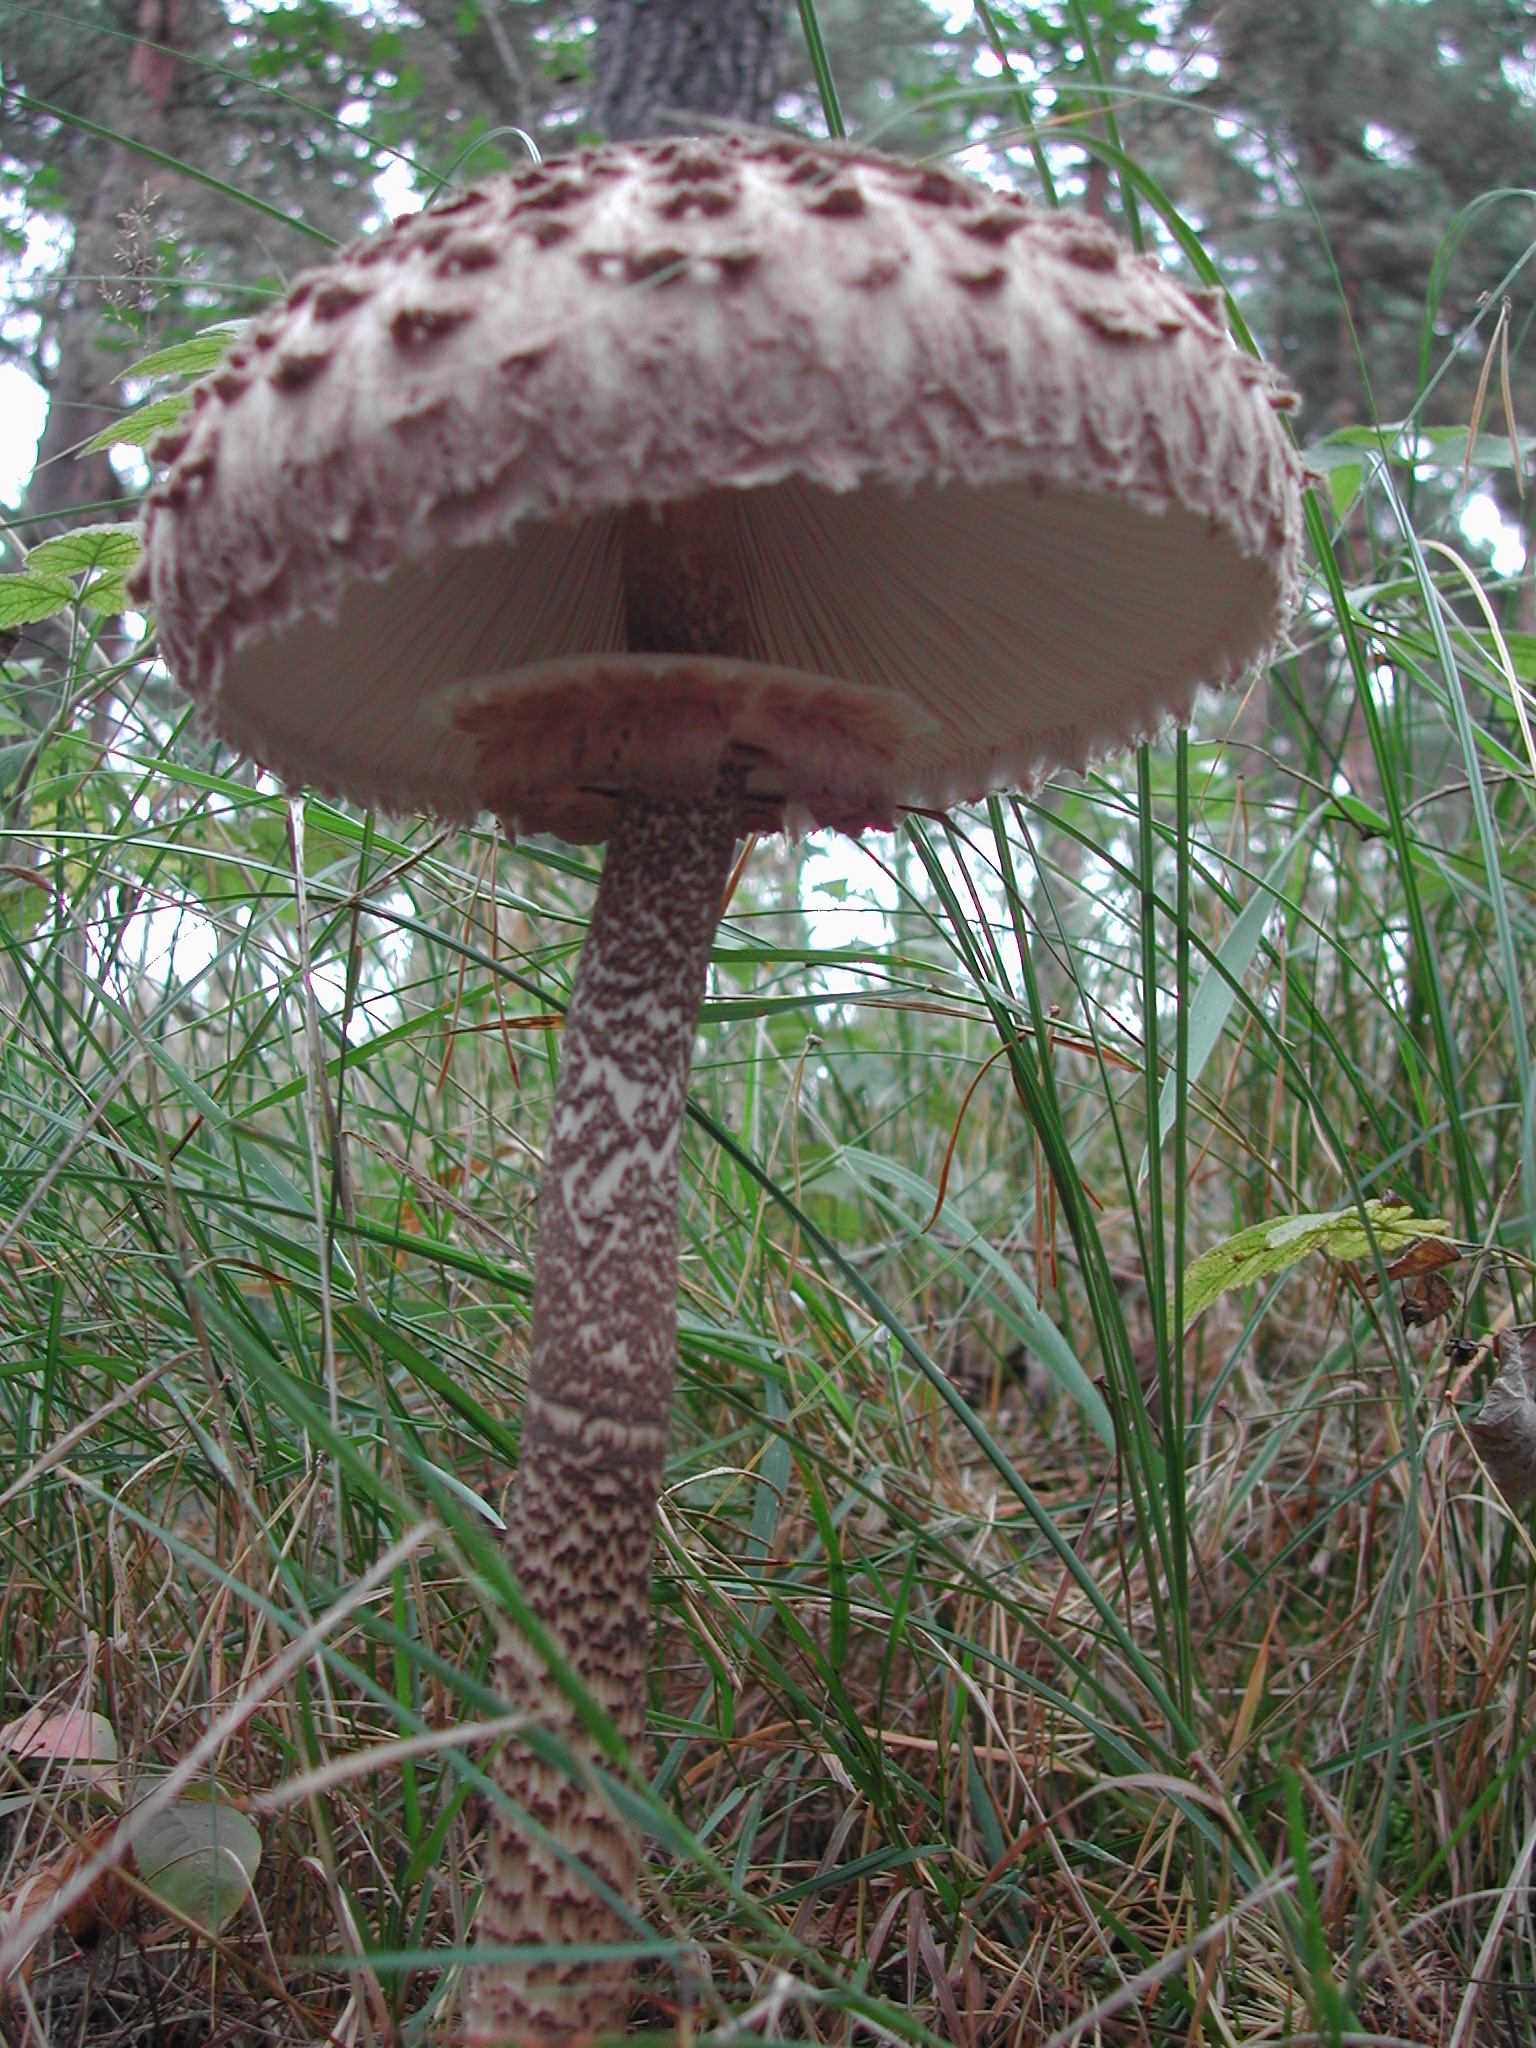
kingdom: Fungi
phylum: Basidiomycota
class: Agaricomycetes
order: Agaricales
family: Agaricaceae
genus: Macrolepiota
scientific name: Macrolepiota procera
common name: Parasol
